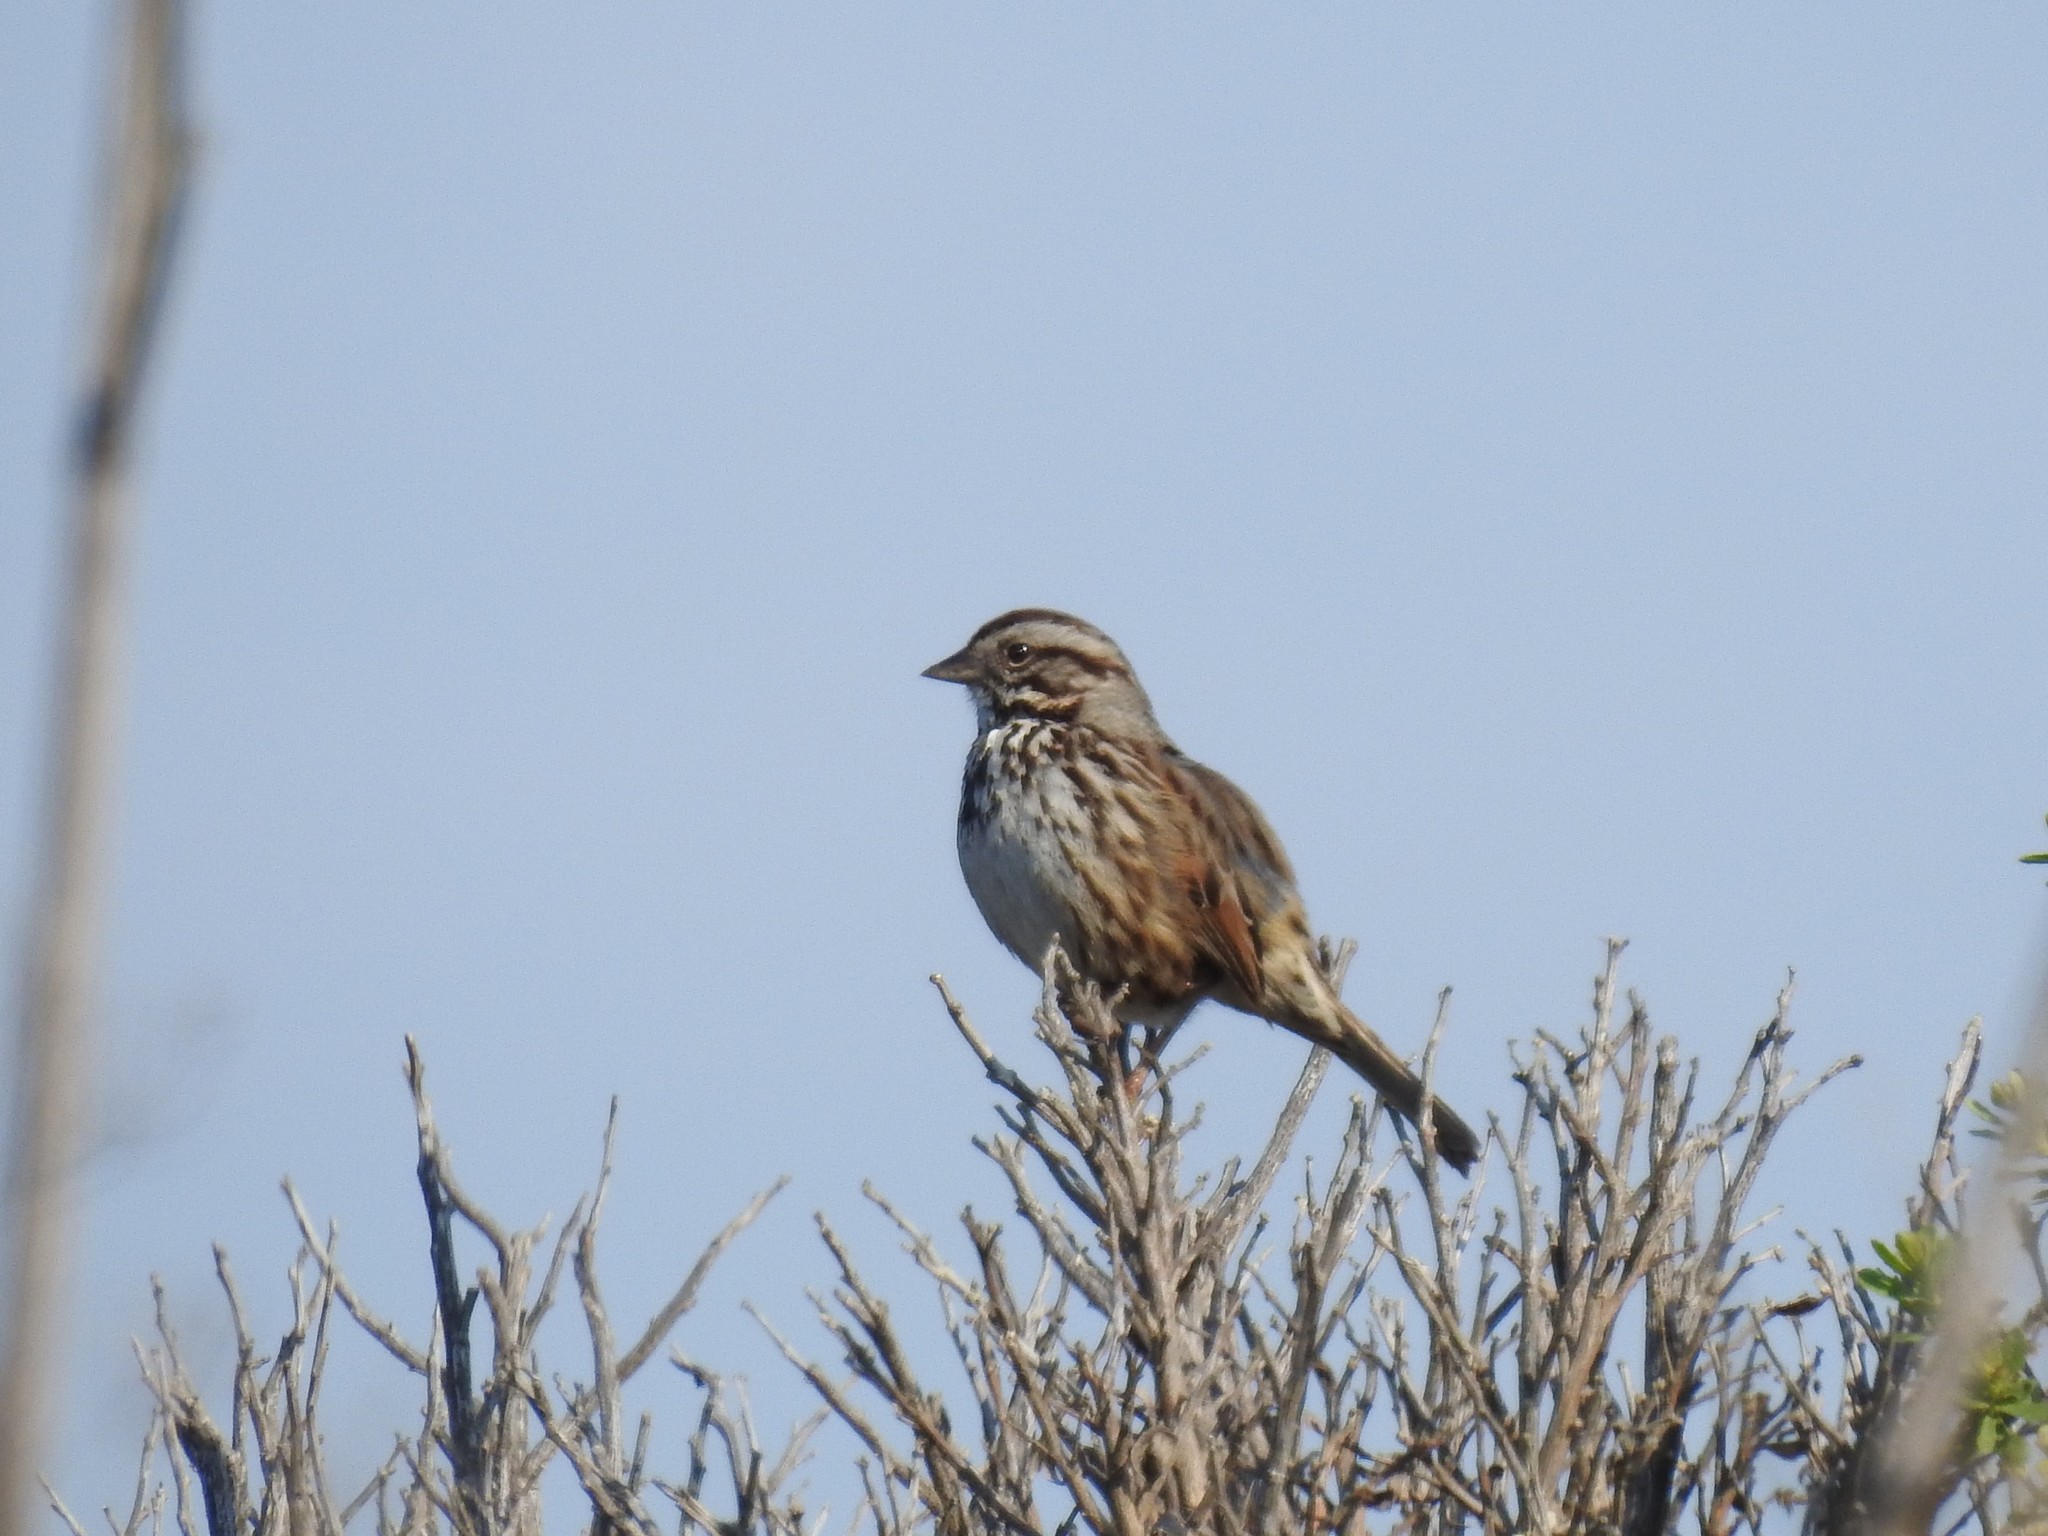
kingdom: Animalia
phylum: Chordata
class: Aves
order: Passeriformes
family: Passerellidae
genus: Melospiza
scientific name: Melospiza melodia
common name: Song sparrow
